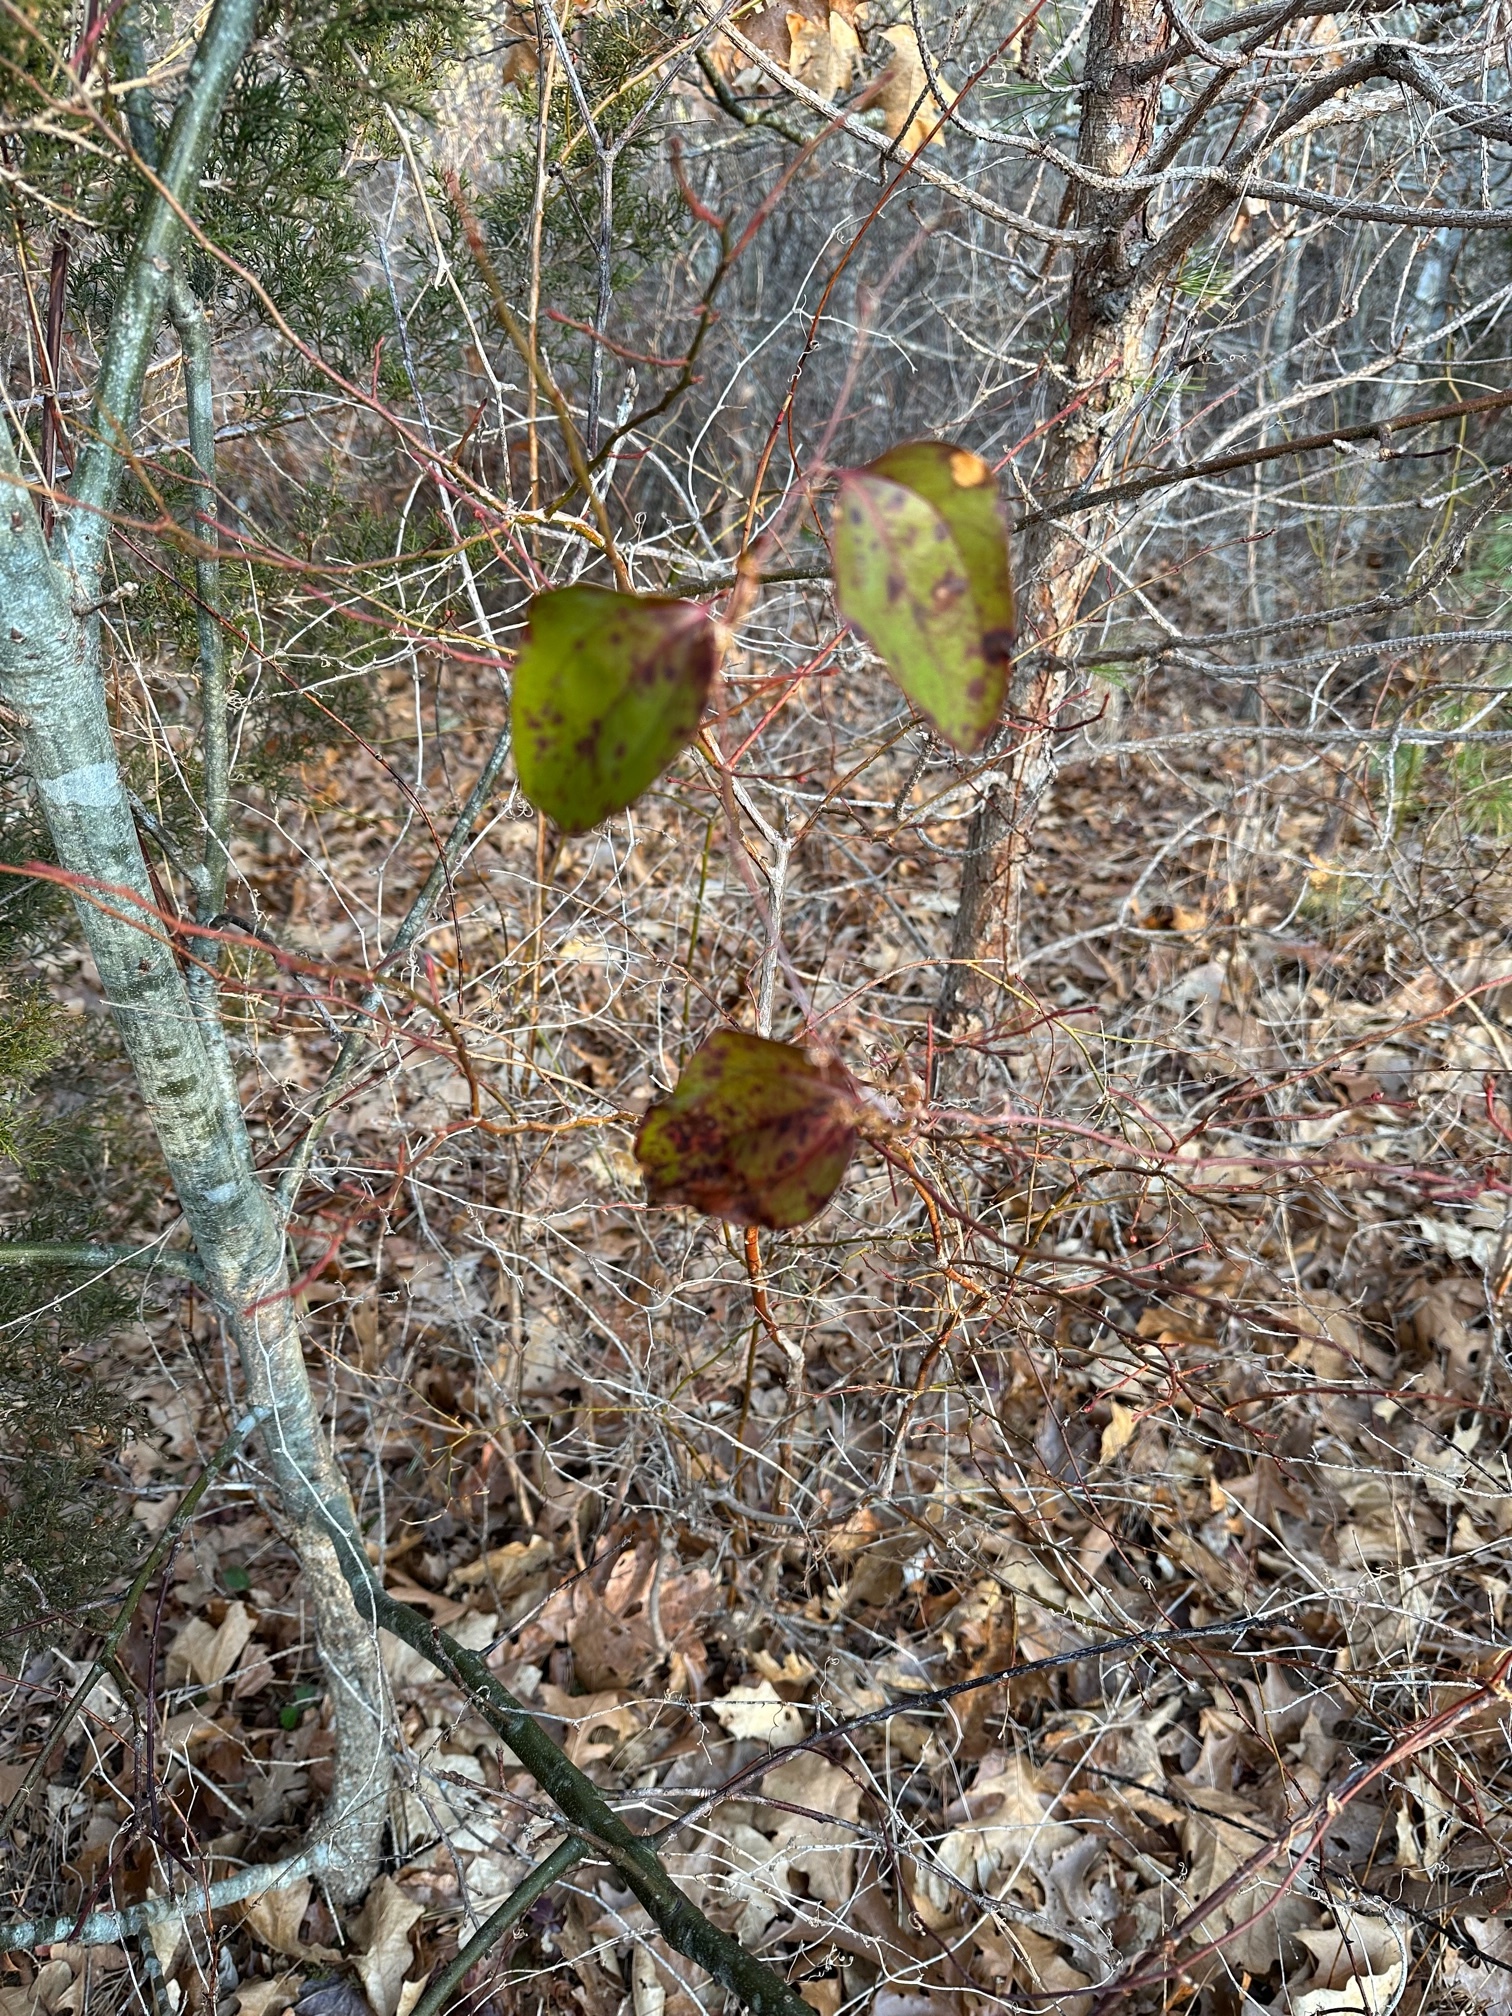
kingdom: Plantae
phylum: Tracheophyta
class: Liliopsida
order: Liliales
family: Smilacaceae
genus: Smilax
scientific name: Smilax glauca
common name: Cat greenbrier
